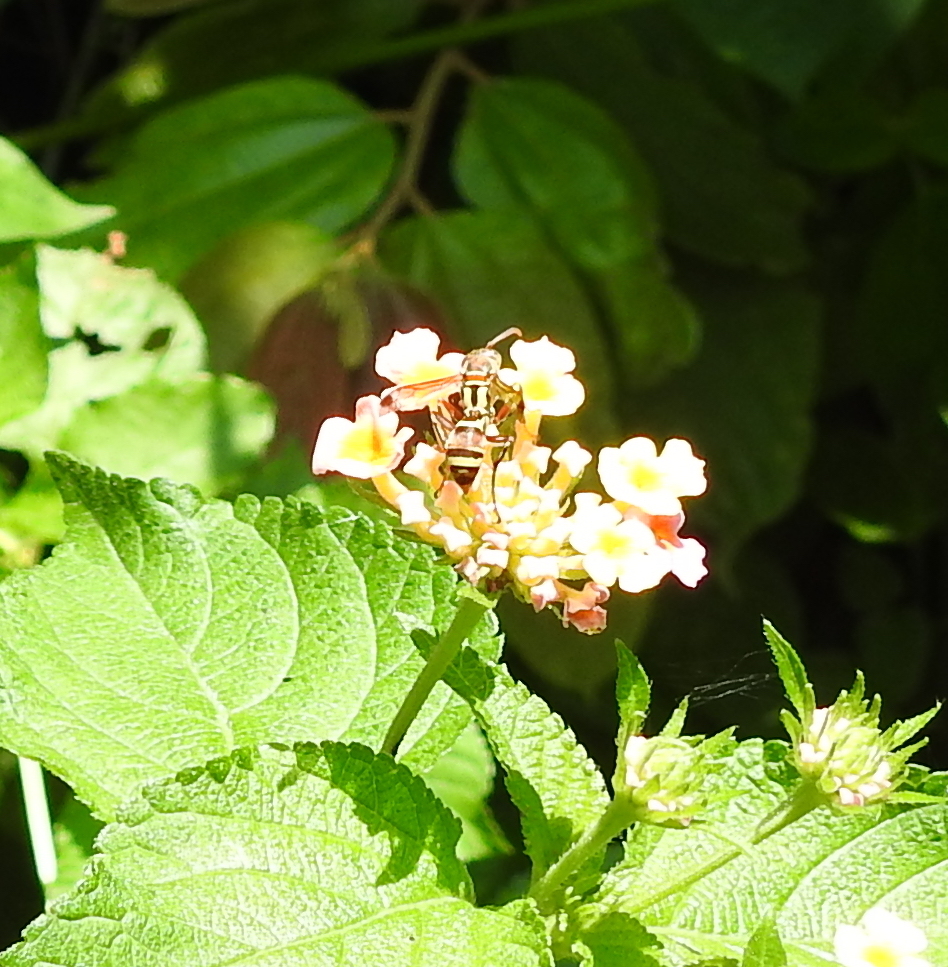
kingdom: Animalia
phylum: Arthropoda
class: Insecta
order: Hymenoptera
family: Eumenidae
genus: Polistes
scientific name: Polistes stigma
